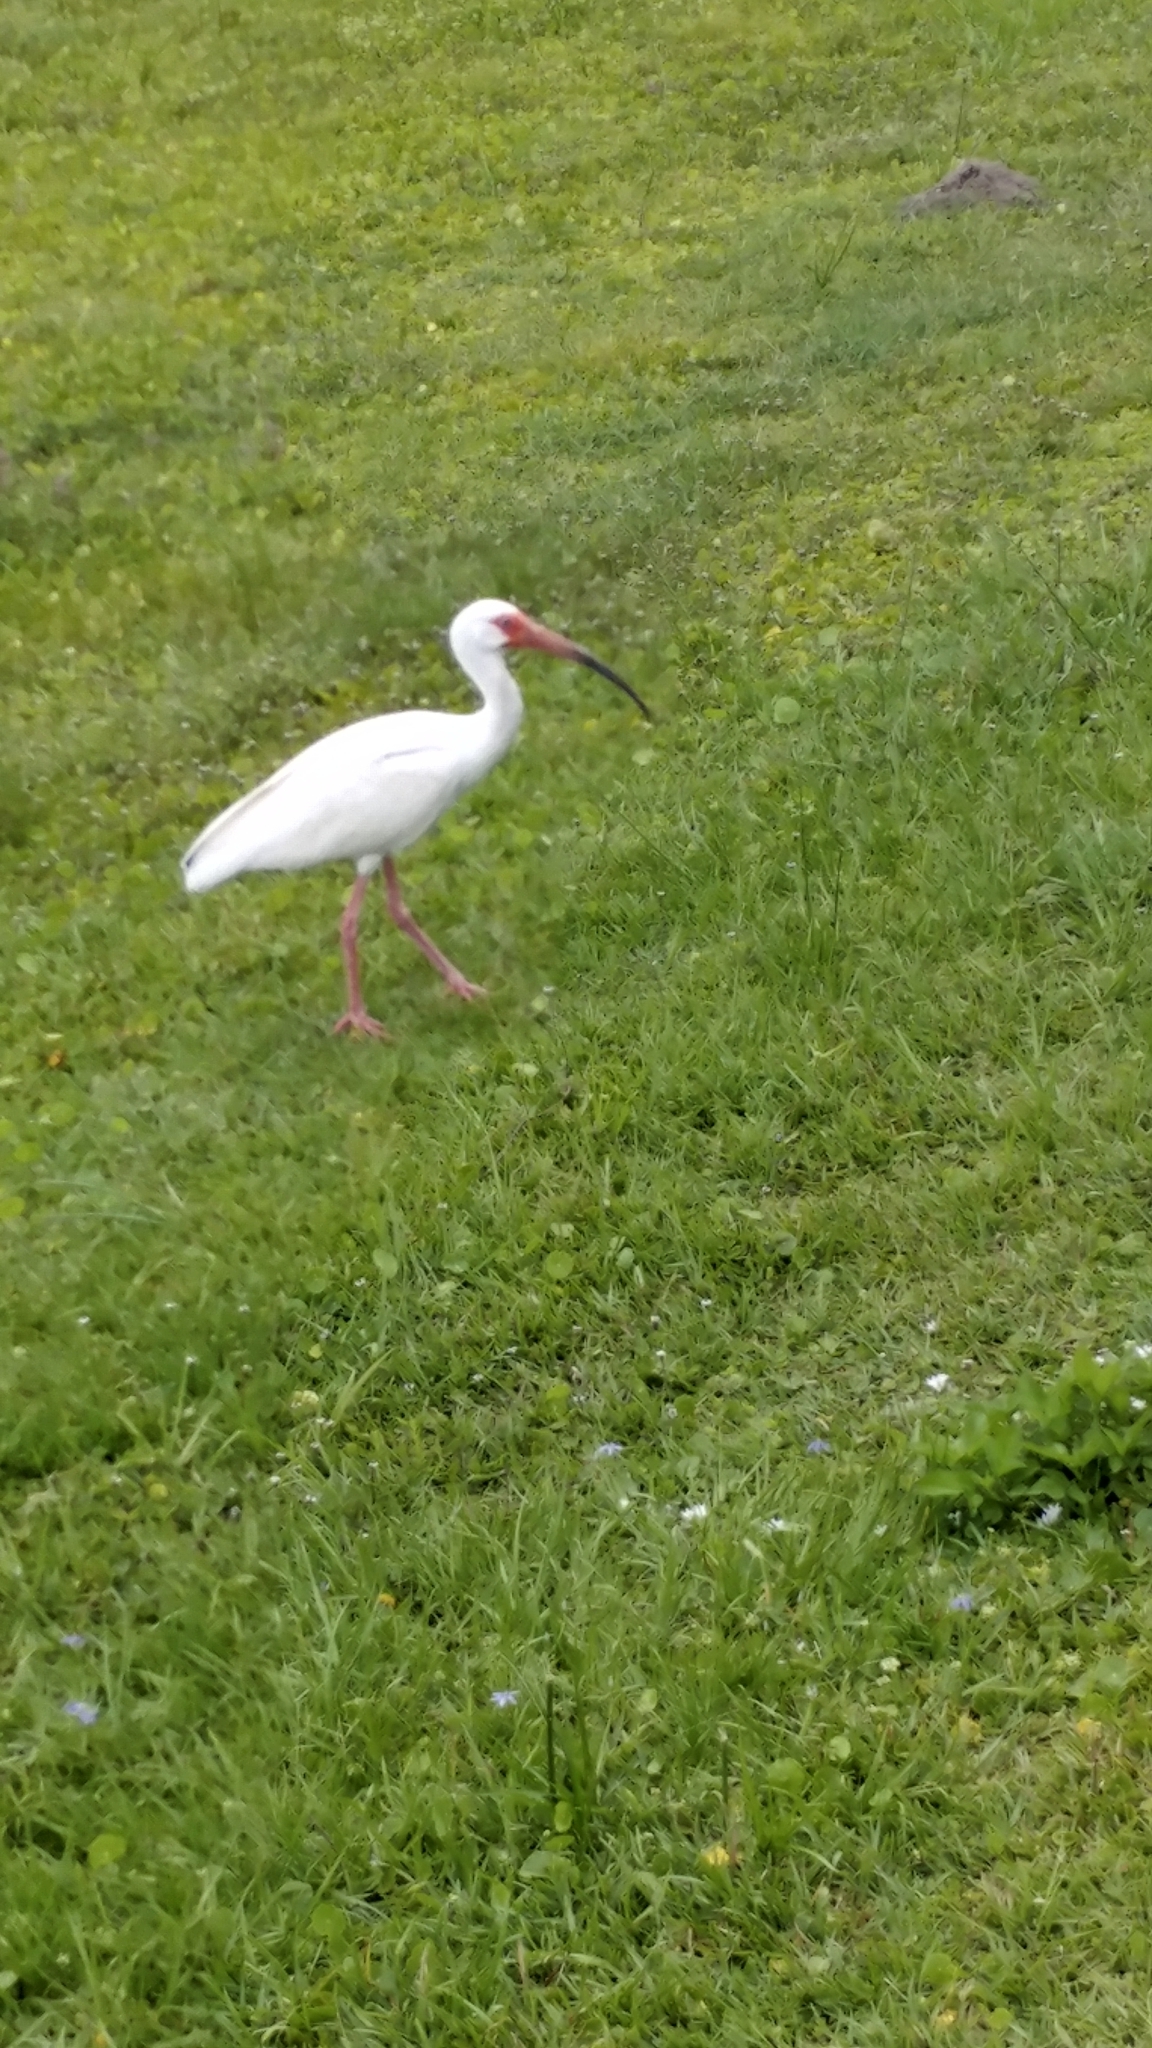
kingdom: Animalia
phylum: Chordata
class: Aves
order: Pelecaniformes
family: Threskiornithidae
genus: Eudocimus
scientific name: Eudocimus albus
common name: White ibis
